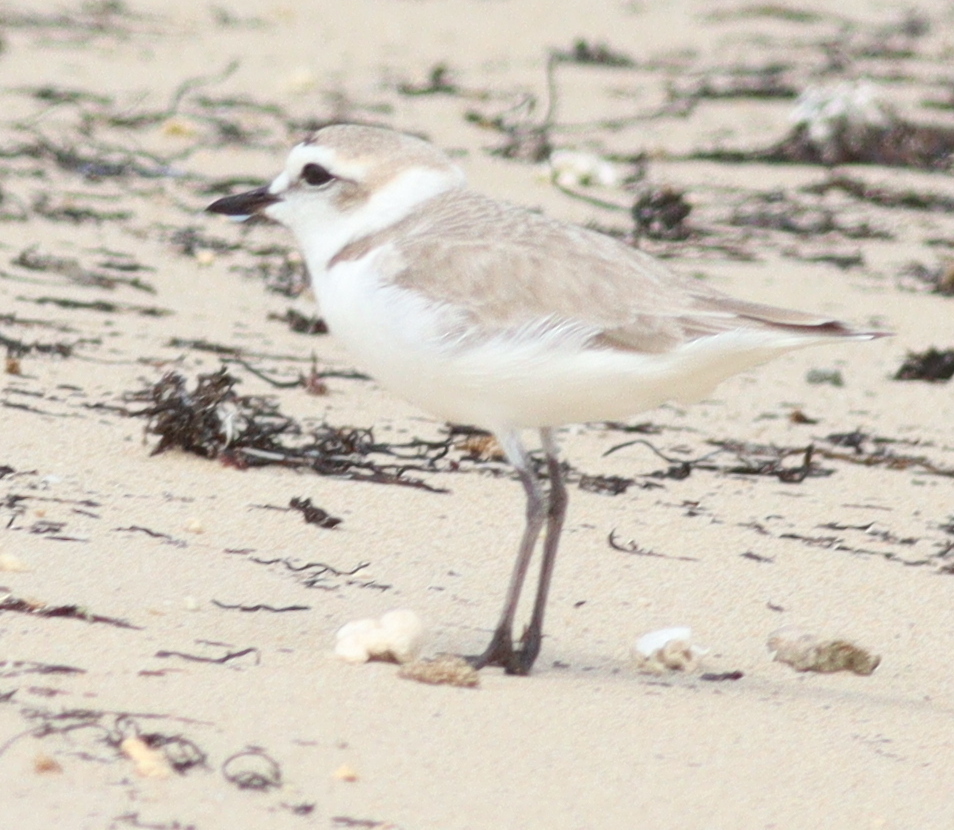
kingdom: Animalia
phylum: Chordata
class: Aves
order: Charadriiformes
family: Charadriidae
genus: Charadrius
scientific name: Charadrius alexandrinus
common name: Kentish plover
